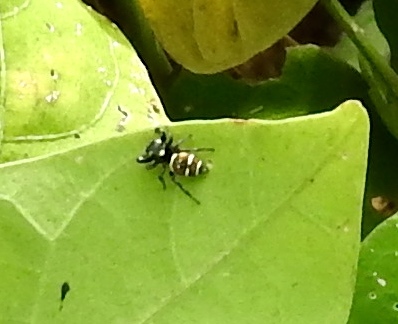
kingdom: Animalia
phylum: Arthropoda
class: Arachnida
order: Araneae
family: Salticidae
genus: Sassacus
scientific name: Sassacus
